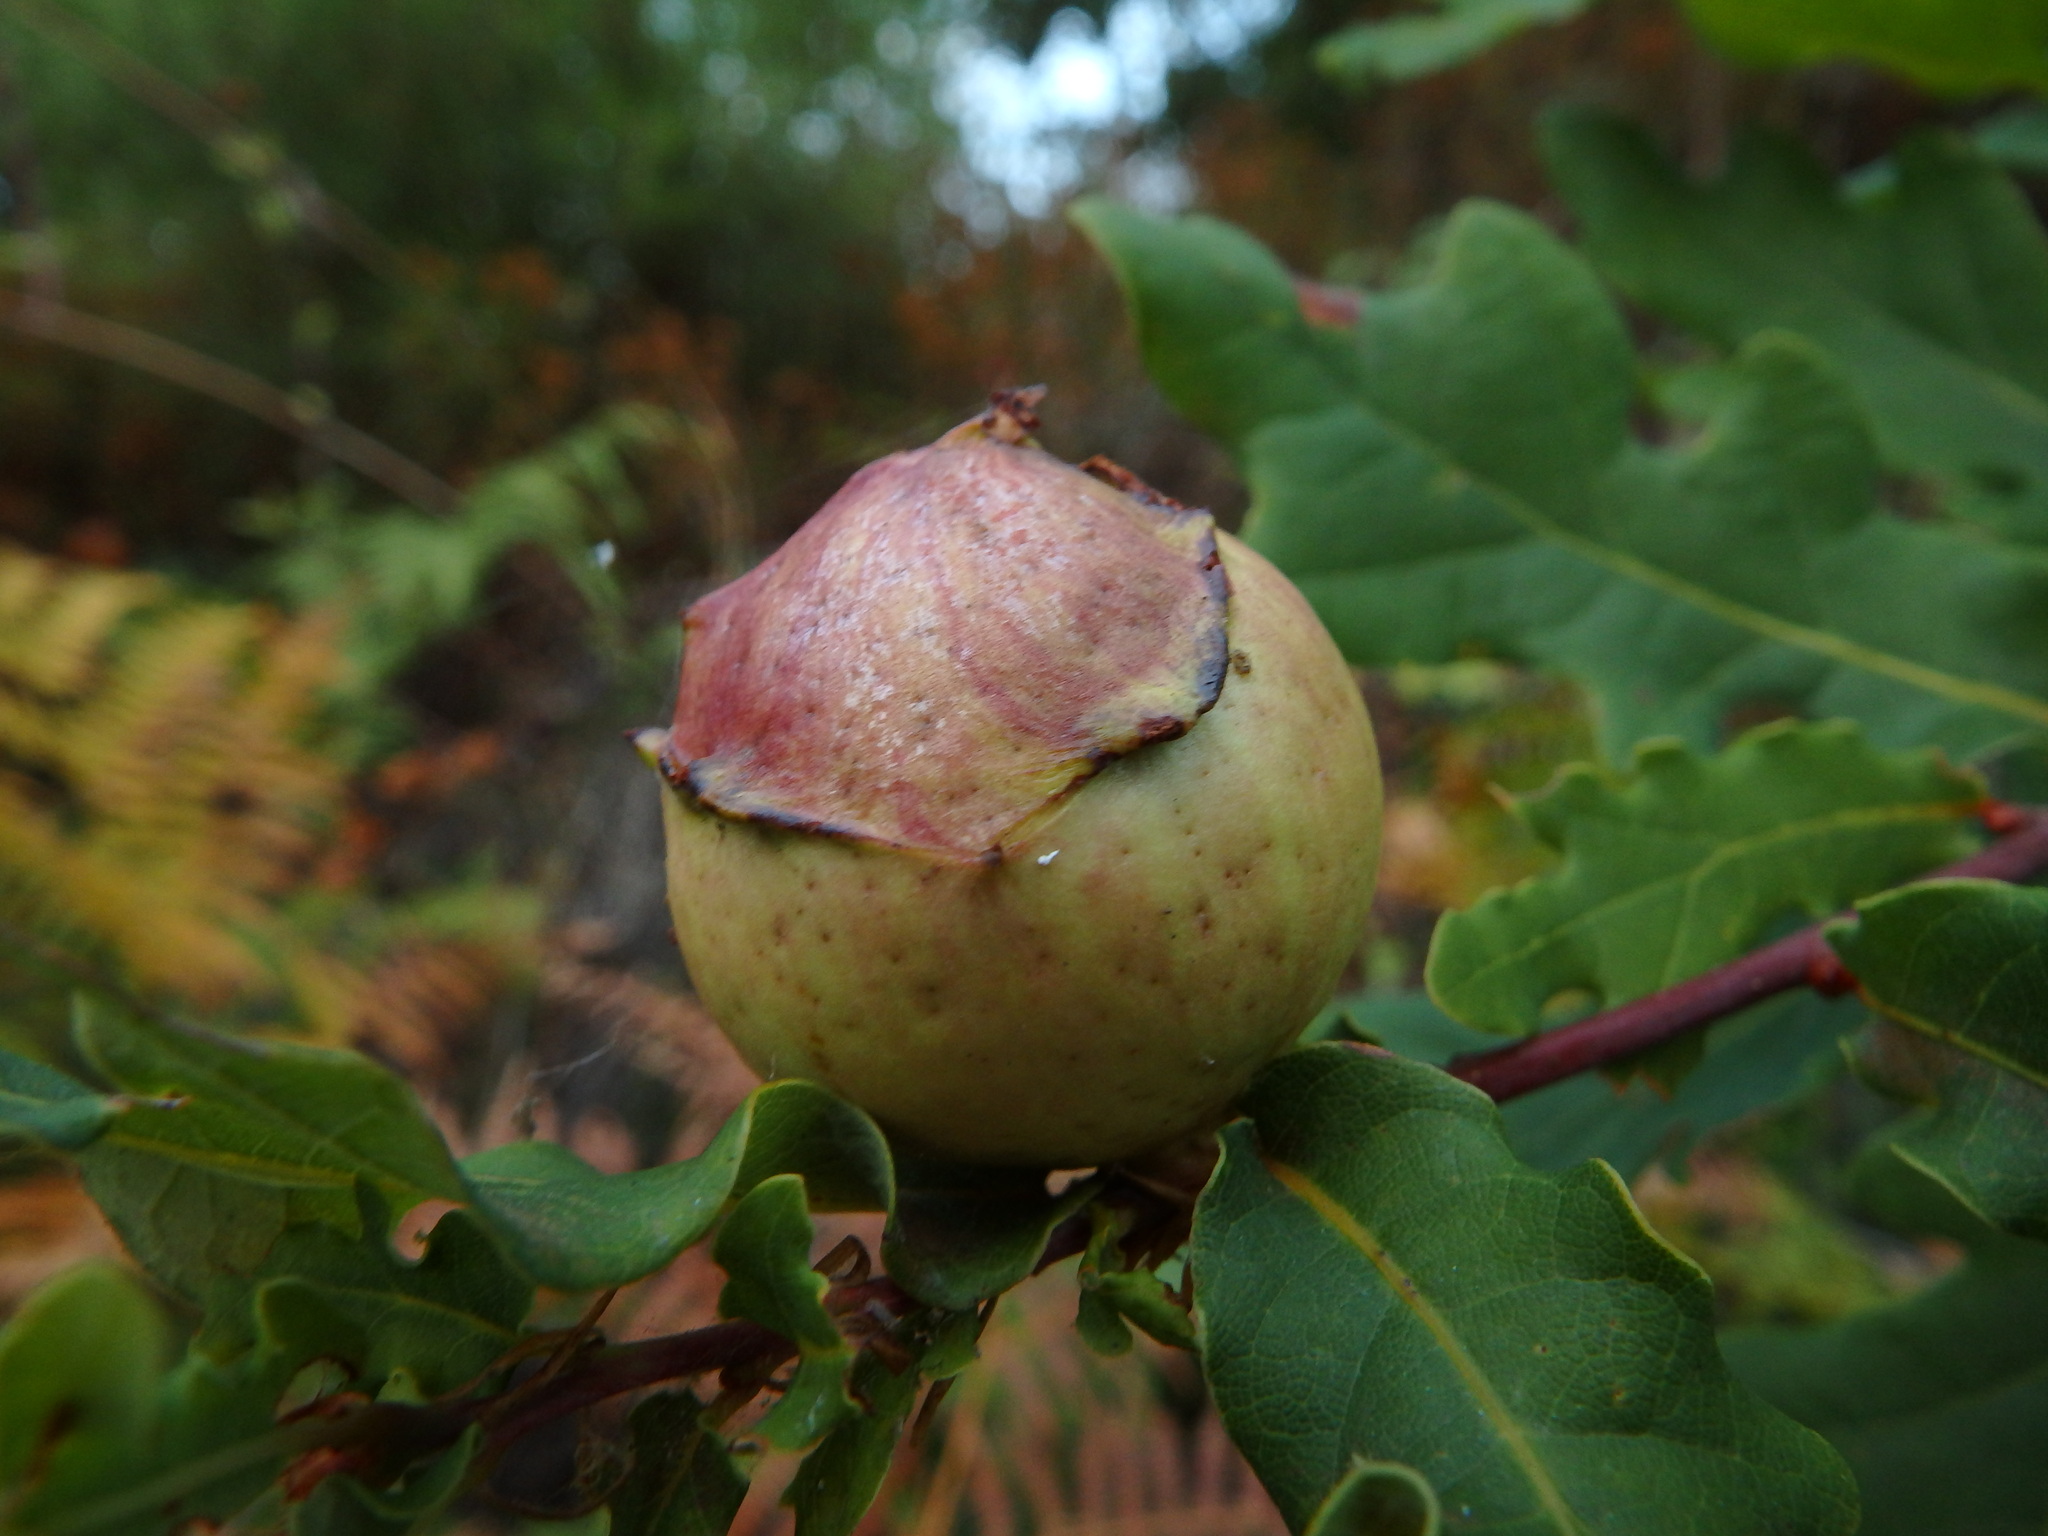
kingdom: Animalia
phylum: Arthropoda
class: Insecta
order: Hymenoptera
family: Cynipidae
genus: Andricus
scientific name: Andricus quercustozae
